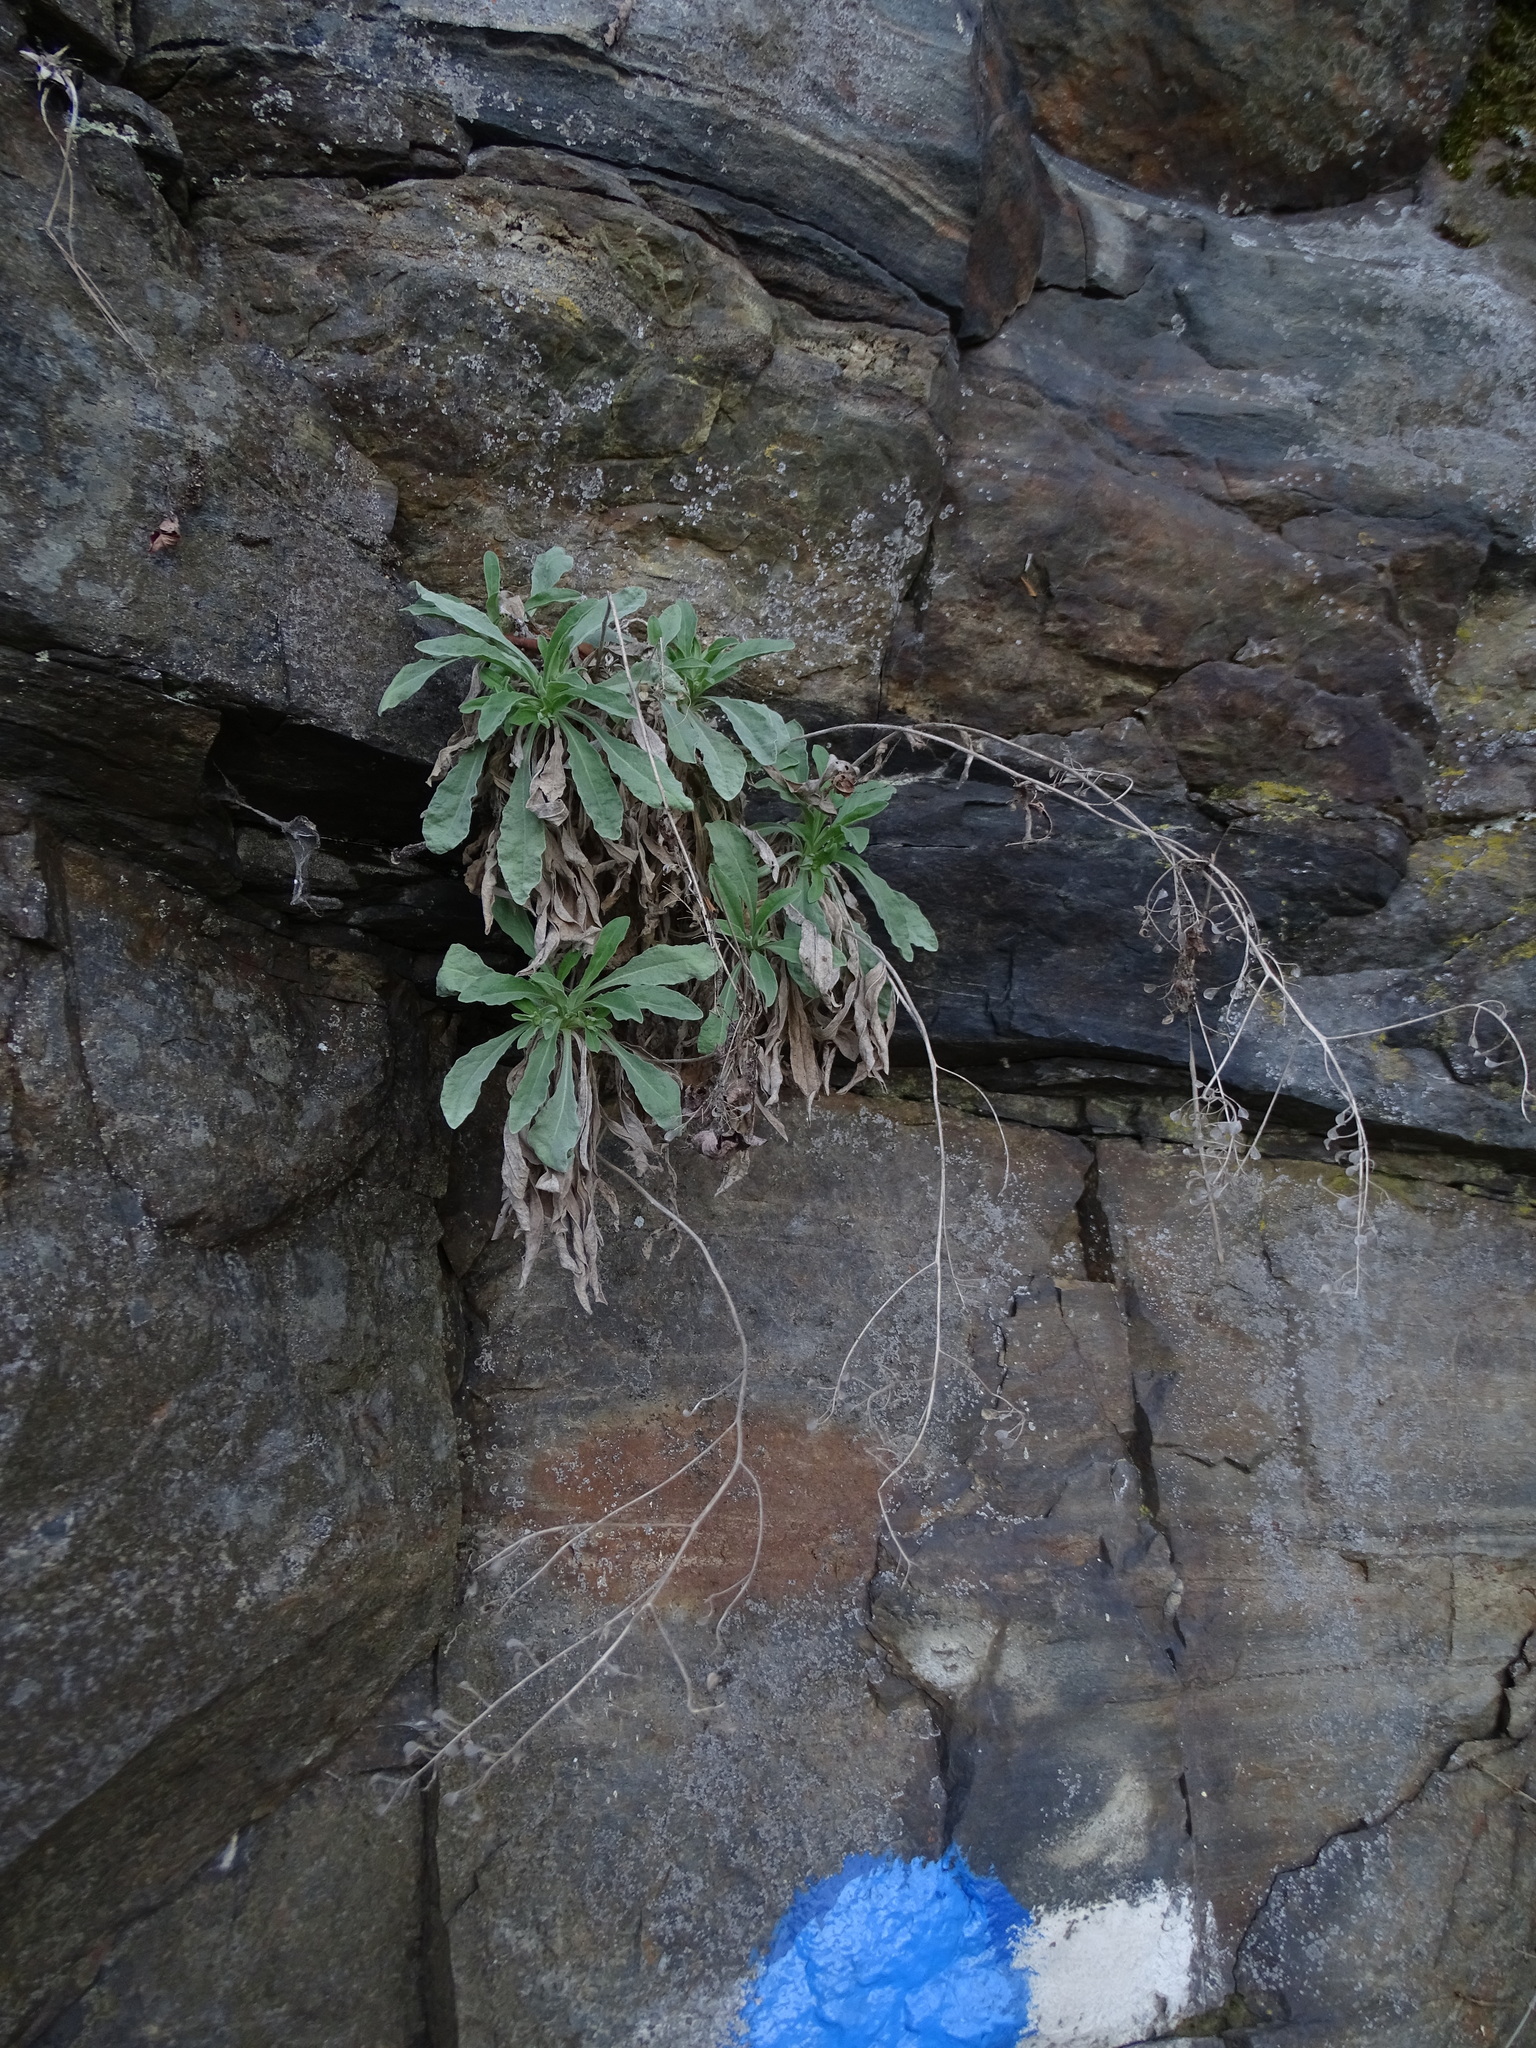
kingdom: Plantae
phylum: Tracheophyta
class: Magnoliopsida
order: Brassicales
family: Brassicaceae
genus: Aurinia
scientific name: Aurinia saxatilis
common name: Golden-tuft alyssum
